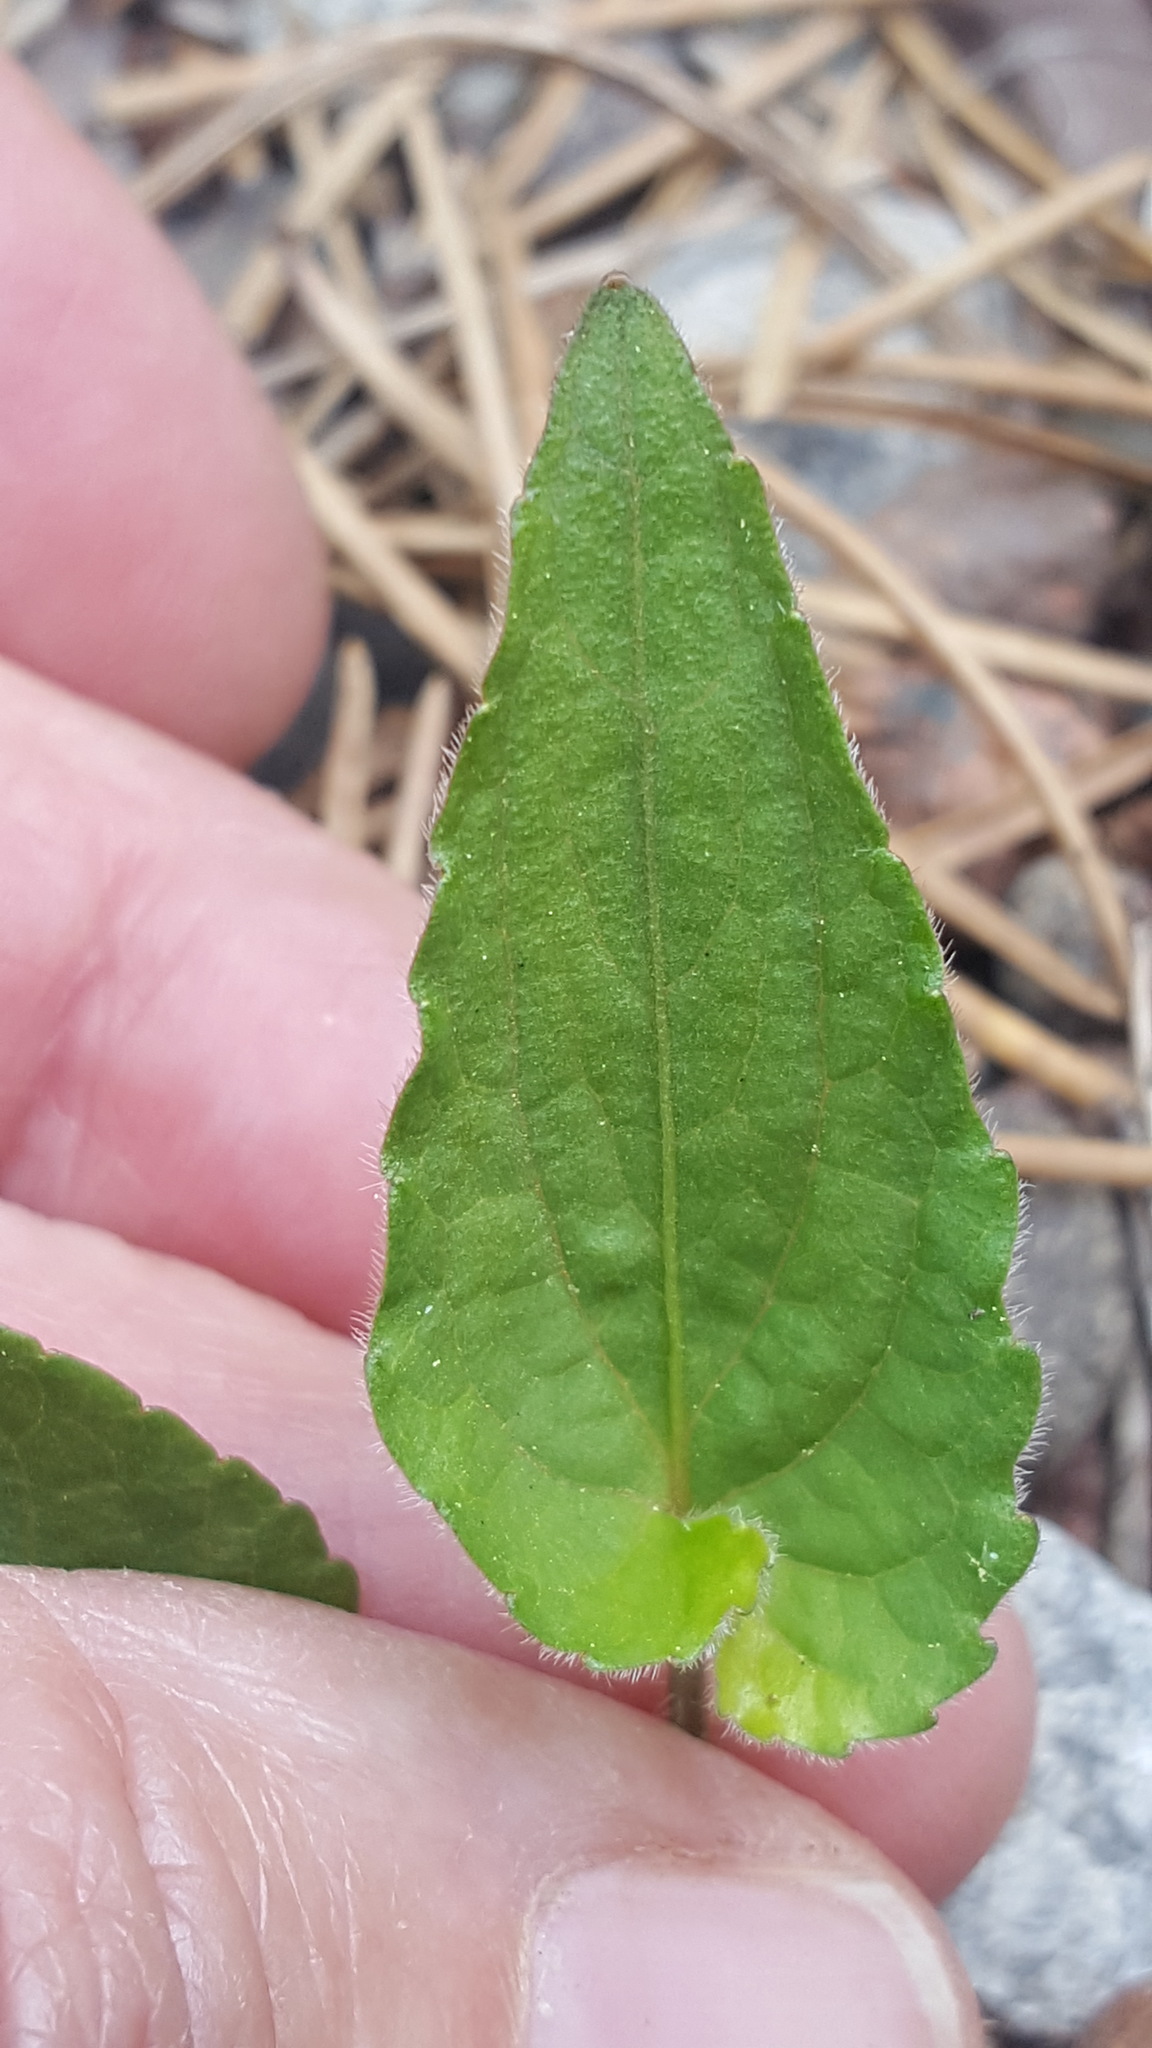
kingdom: Plantae
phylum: Tracheophyta
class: Magnoliopsida
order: Malpighiales
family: Violaceae
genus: Viola
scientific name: Viola sagittata
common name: Arrowhead violet
